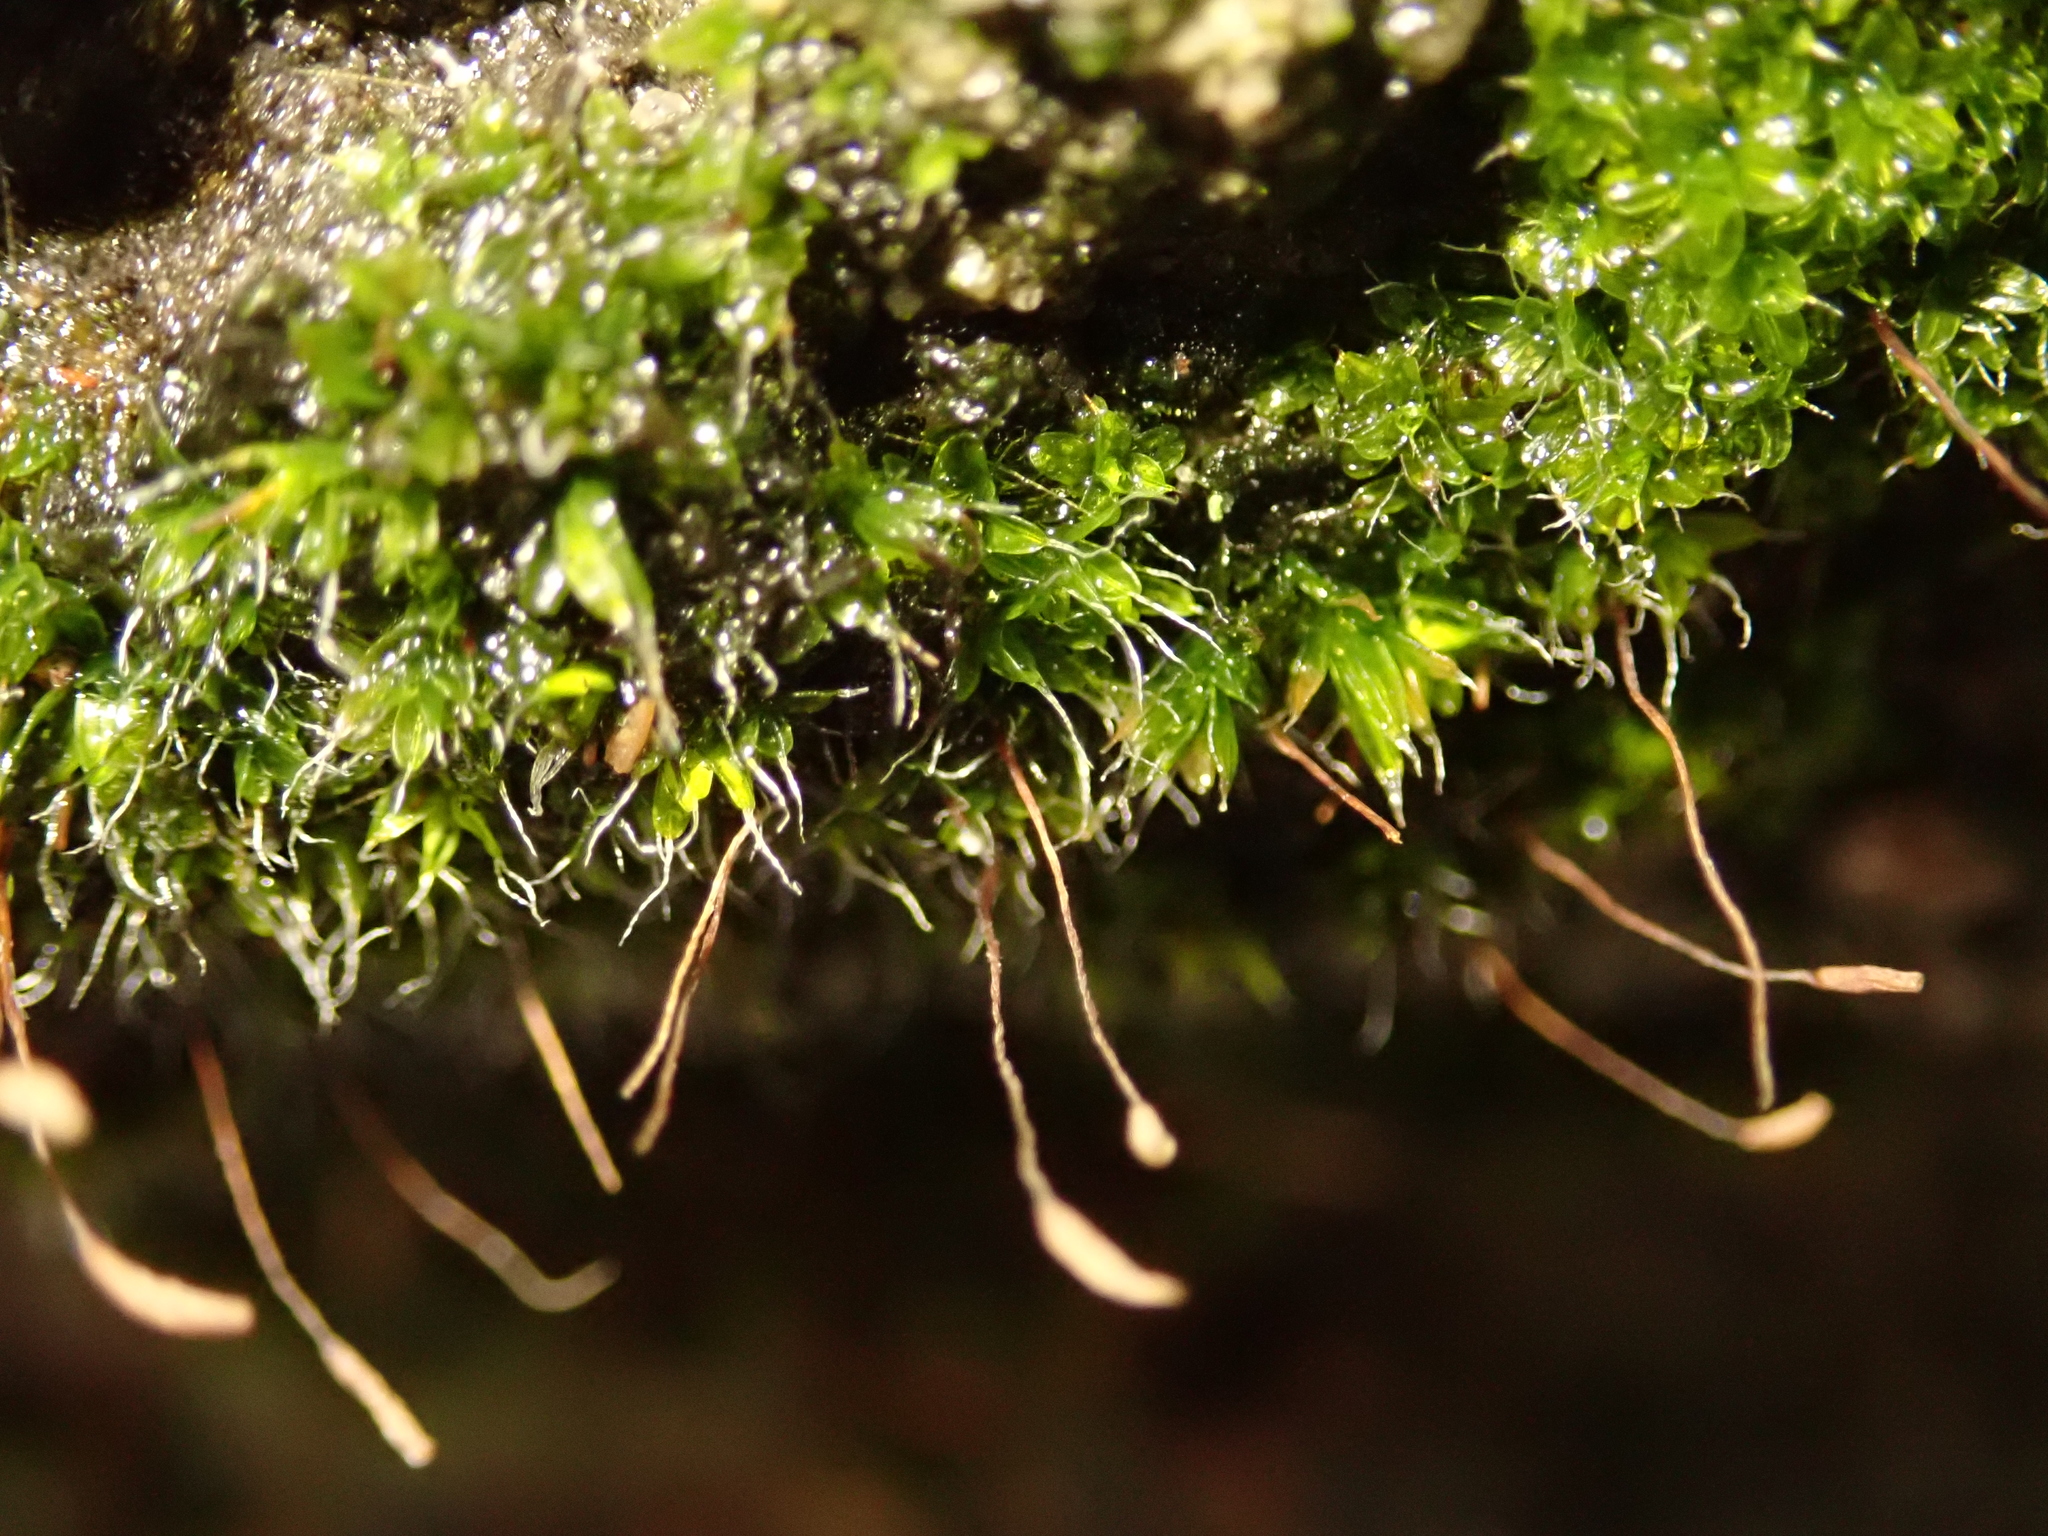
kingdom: Plantae
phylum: Bryophyta
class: Bryopsida
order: Pottiales
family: Pottiaceae
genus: Tortula
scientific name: Tortula muralis
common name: Wall screw-moss
